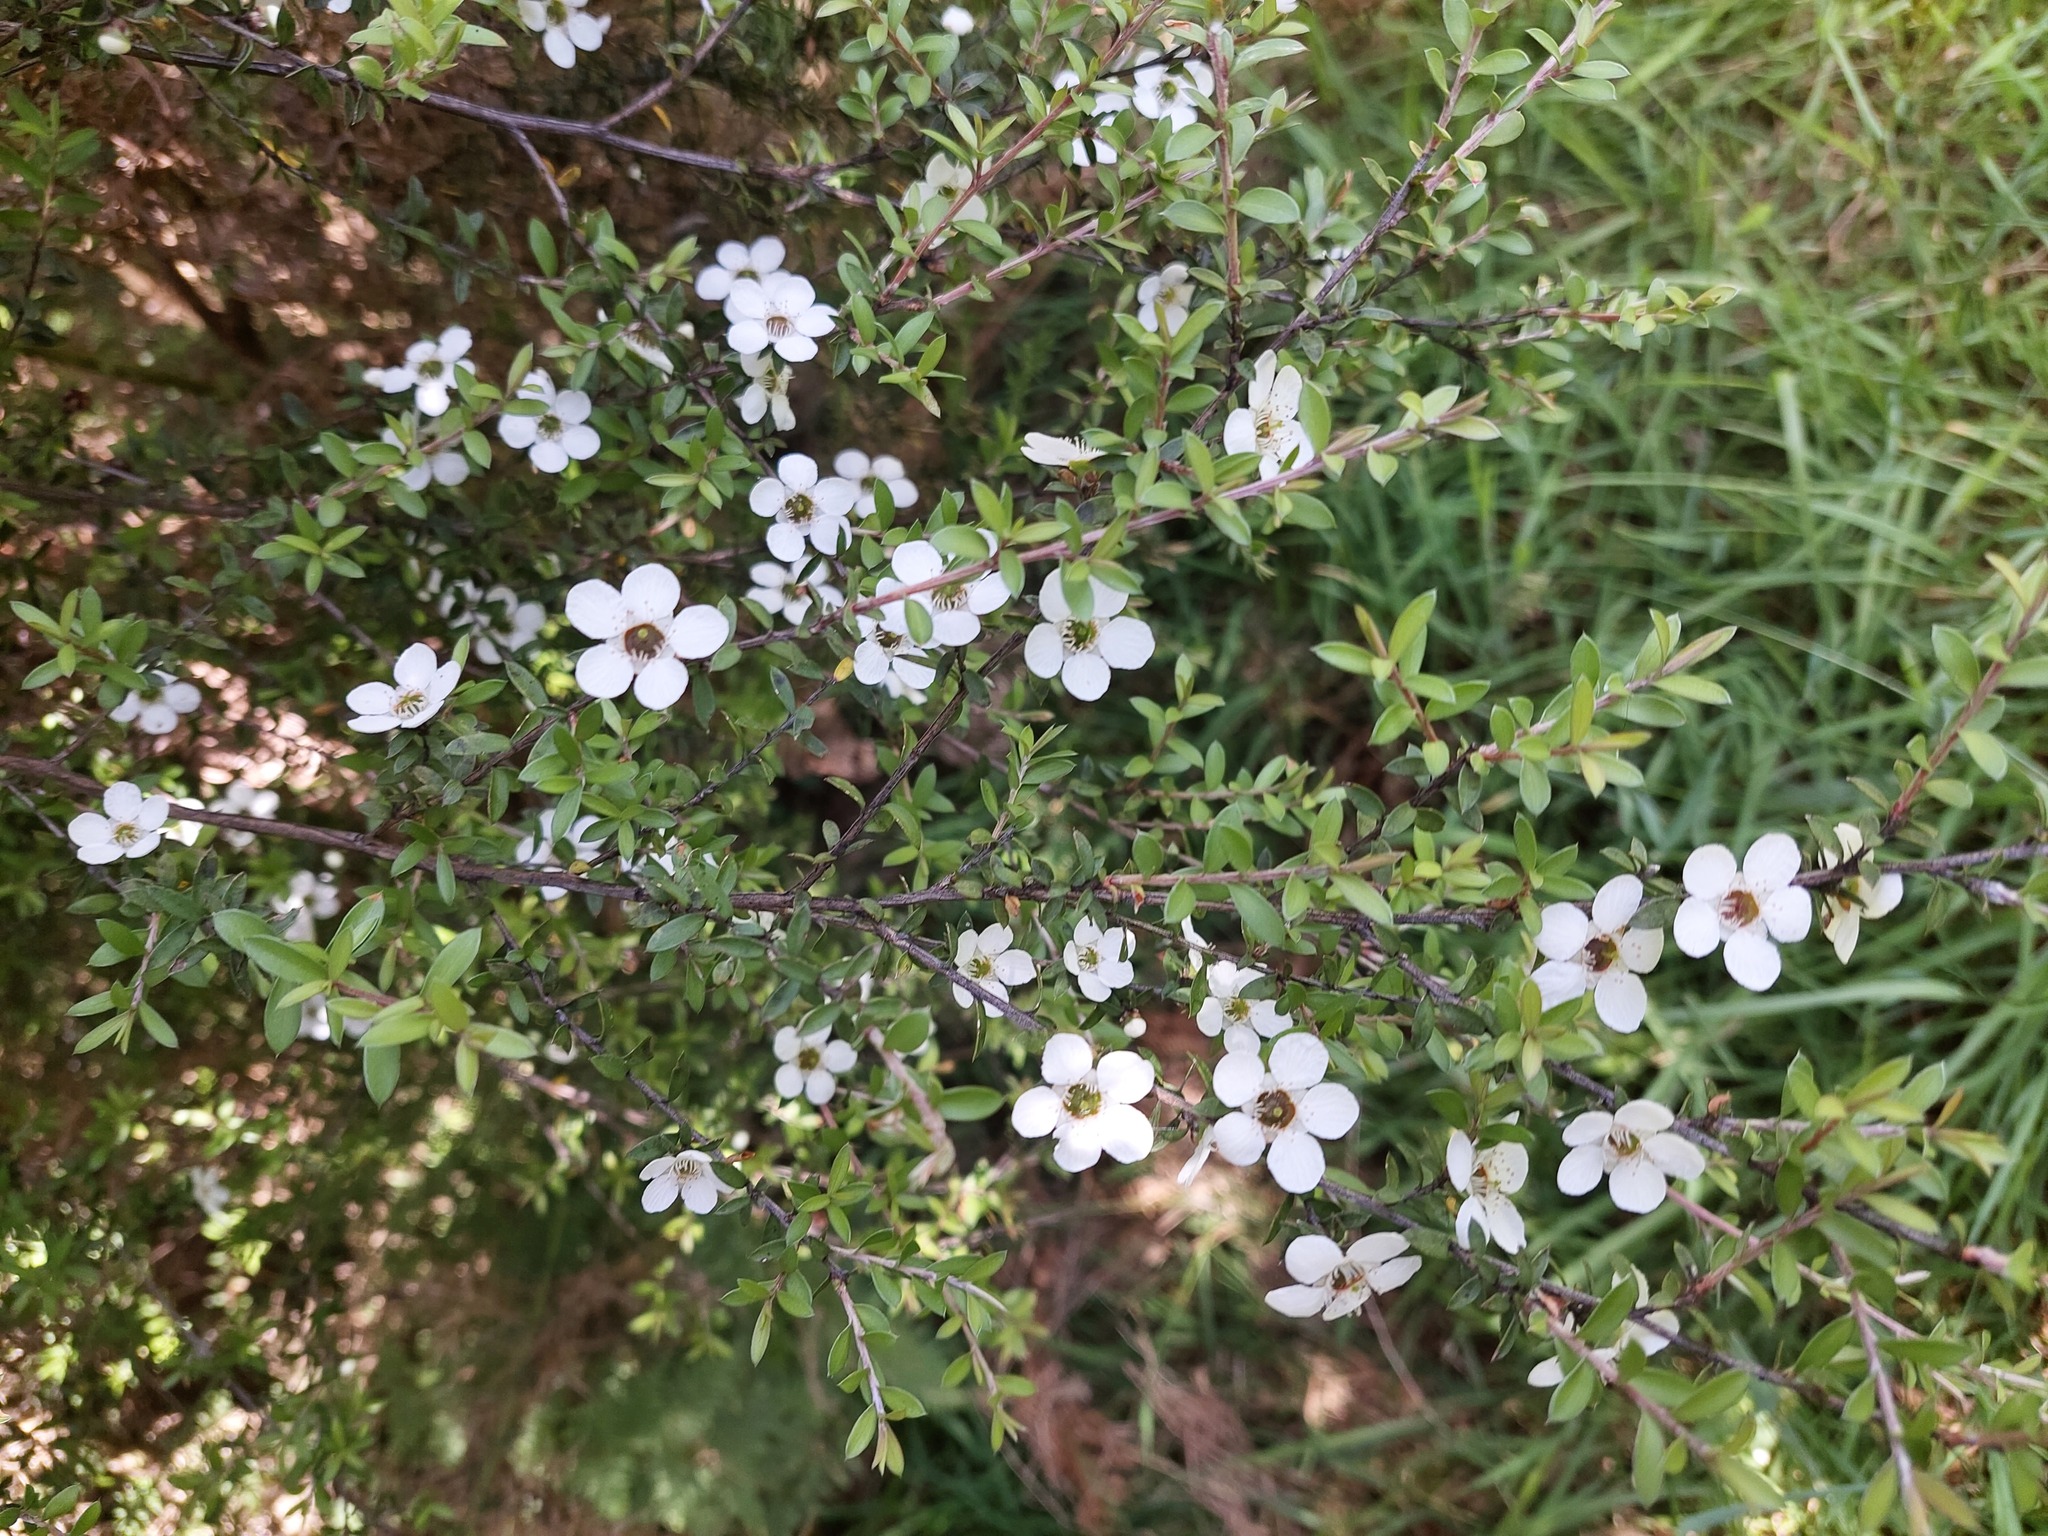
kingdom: Plantae
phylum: Tracheophyta
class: Magnoliopsida
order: Myrtales
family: Myrtaceae
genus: Leptospermum
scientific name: Leptospermum scoparium
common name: Broom tea-tree
